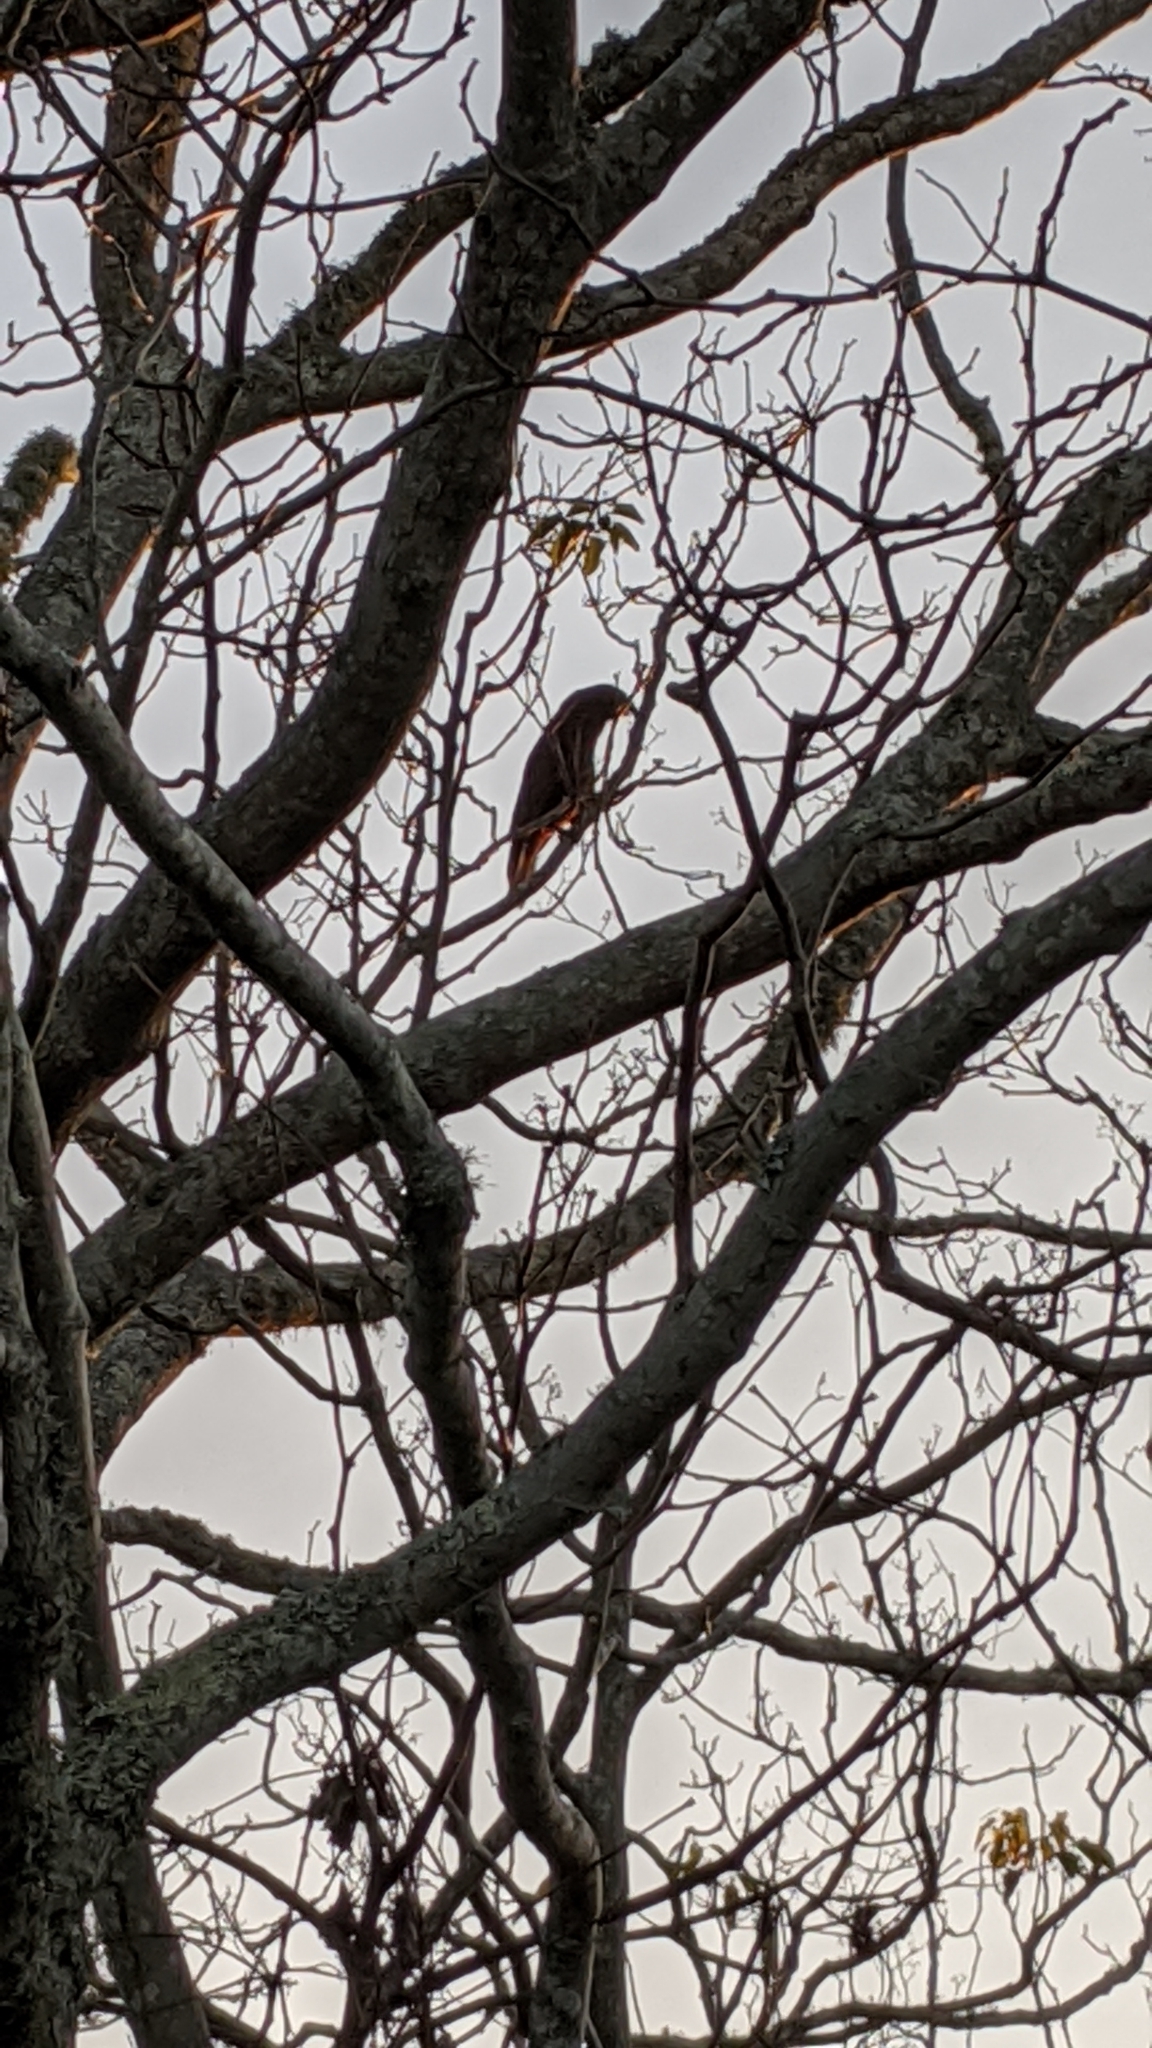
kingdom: Animalia
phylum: Chordata
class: Aves
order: Psittaciformes
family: Psittacidae
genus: Nestor
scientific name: Nestor meridionalis
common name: New zealand kaka
